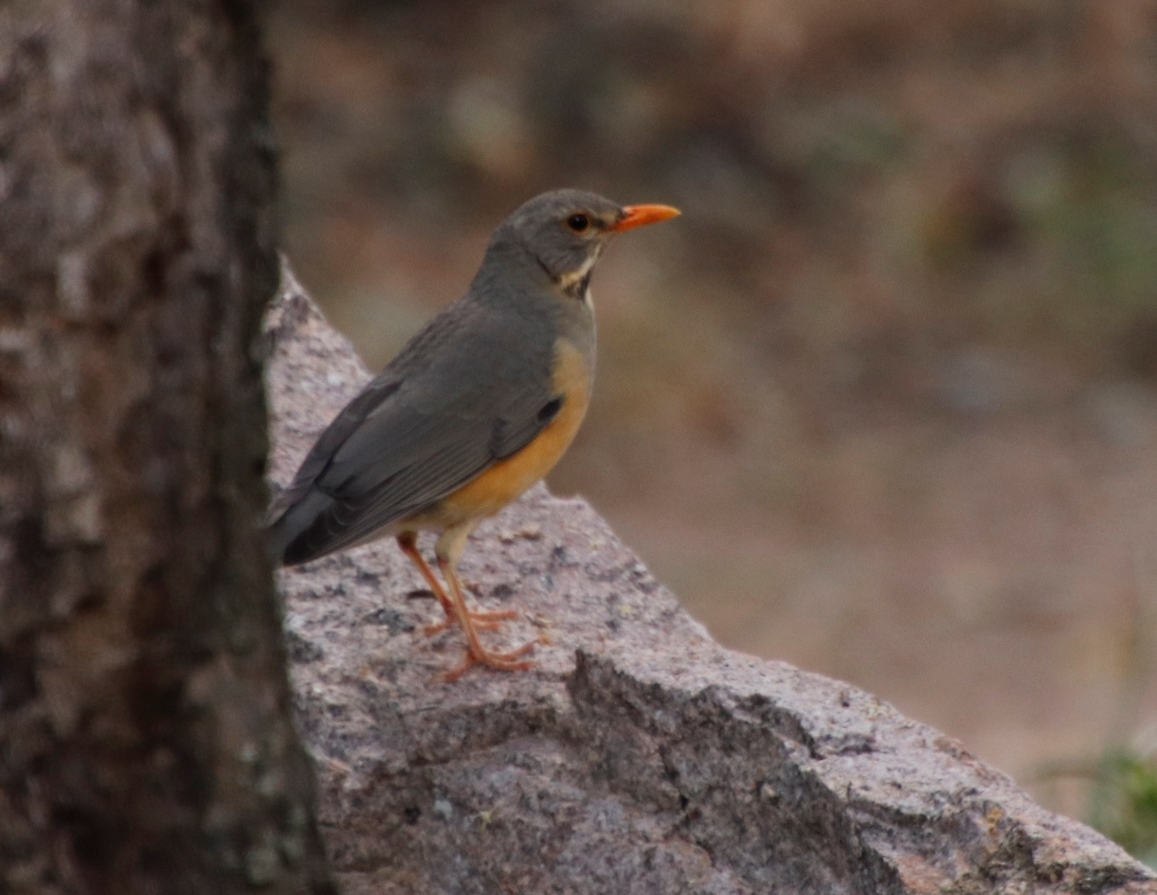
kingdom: Animalia
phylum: Chordata
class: Aves
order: Passeriformes
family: Turdidae
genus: Turdus
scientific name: Turdus libonyana
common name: Kurrichane thrush
